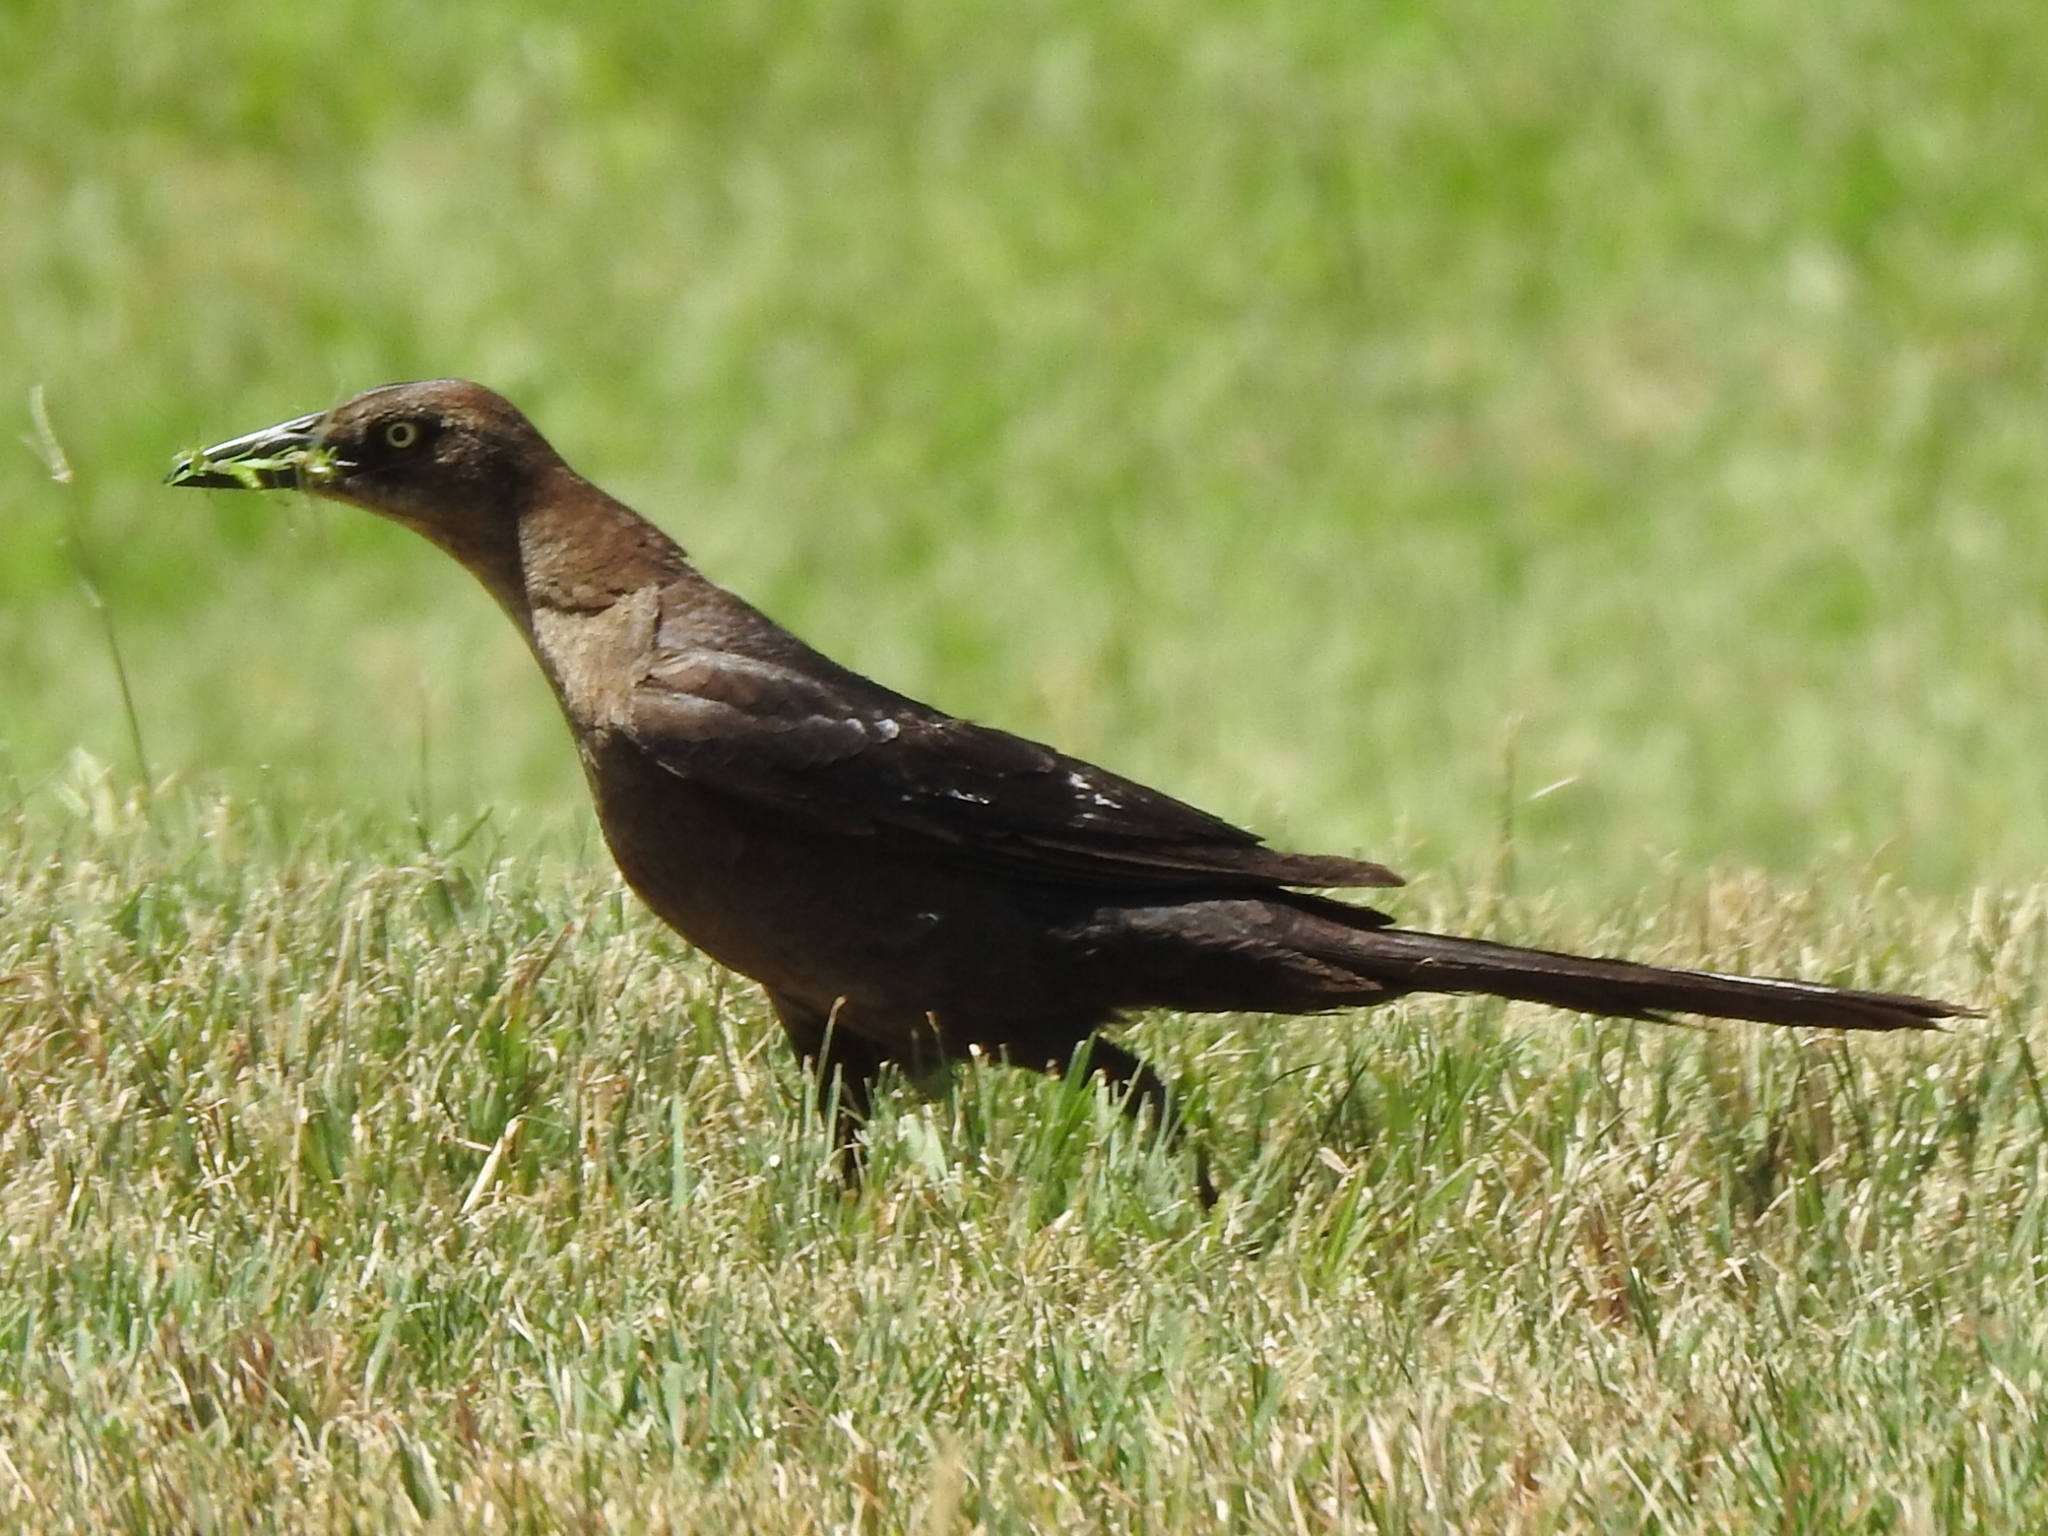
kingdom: Animalia
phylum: Chordata
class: Aves
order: Passeriformes
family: Icteridae
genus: Quiscalus
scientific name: Quiscalus mexicanus
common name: Great-tailed grackle
